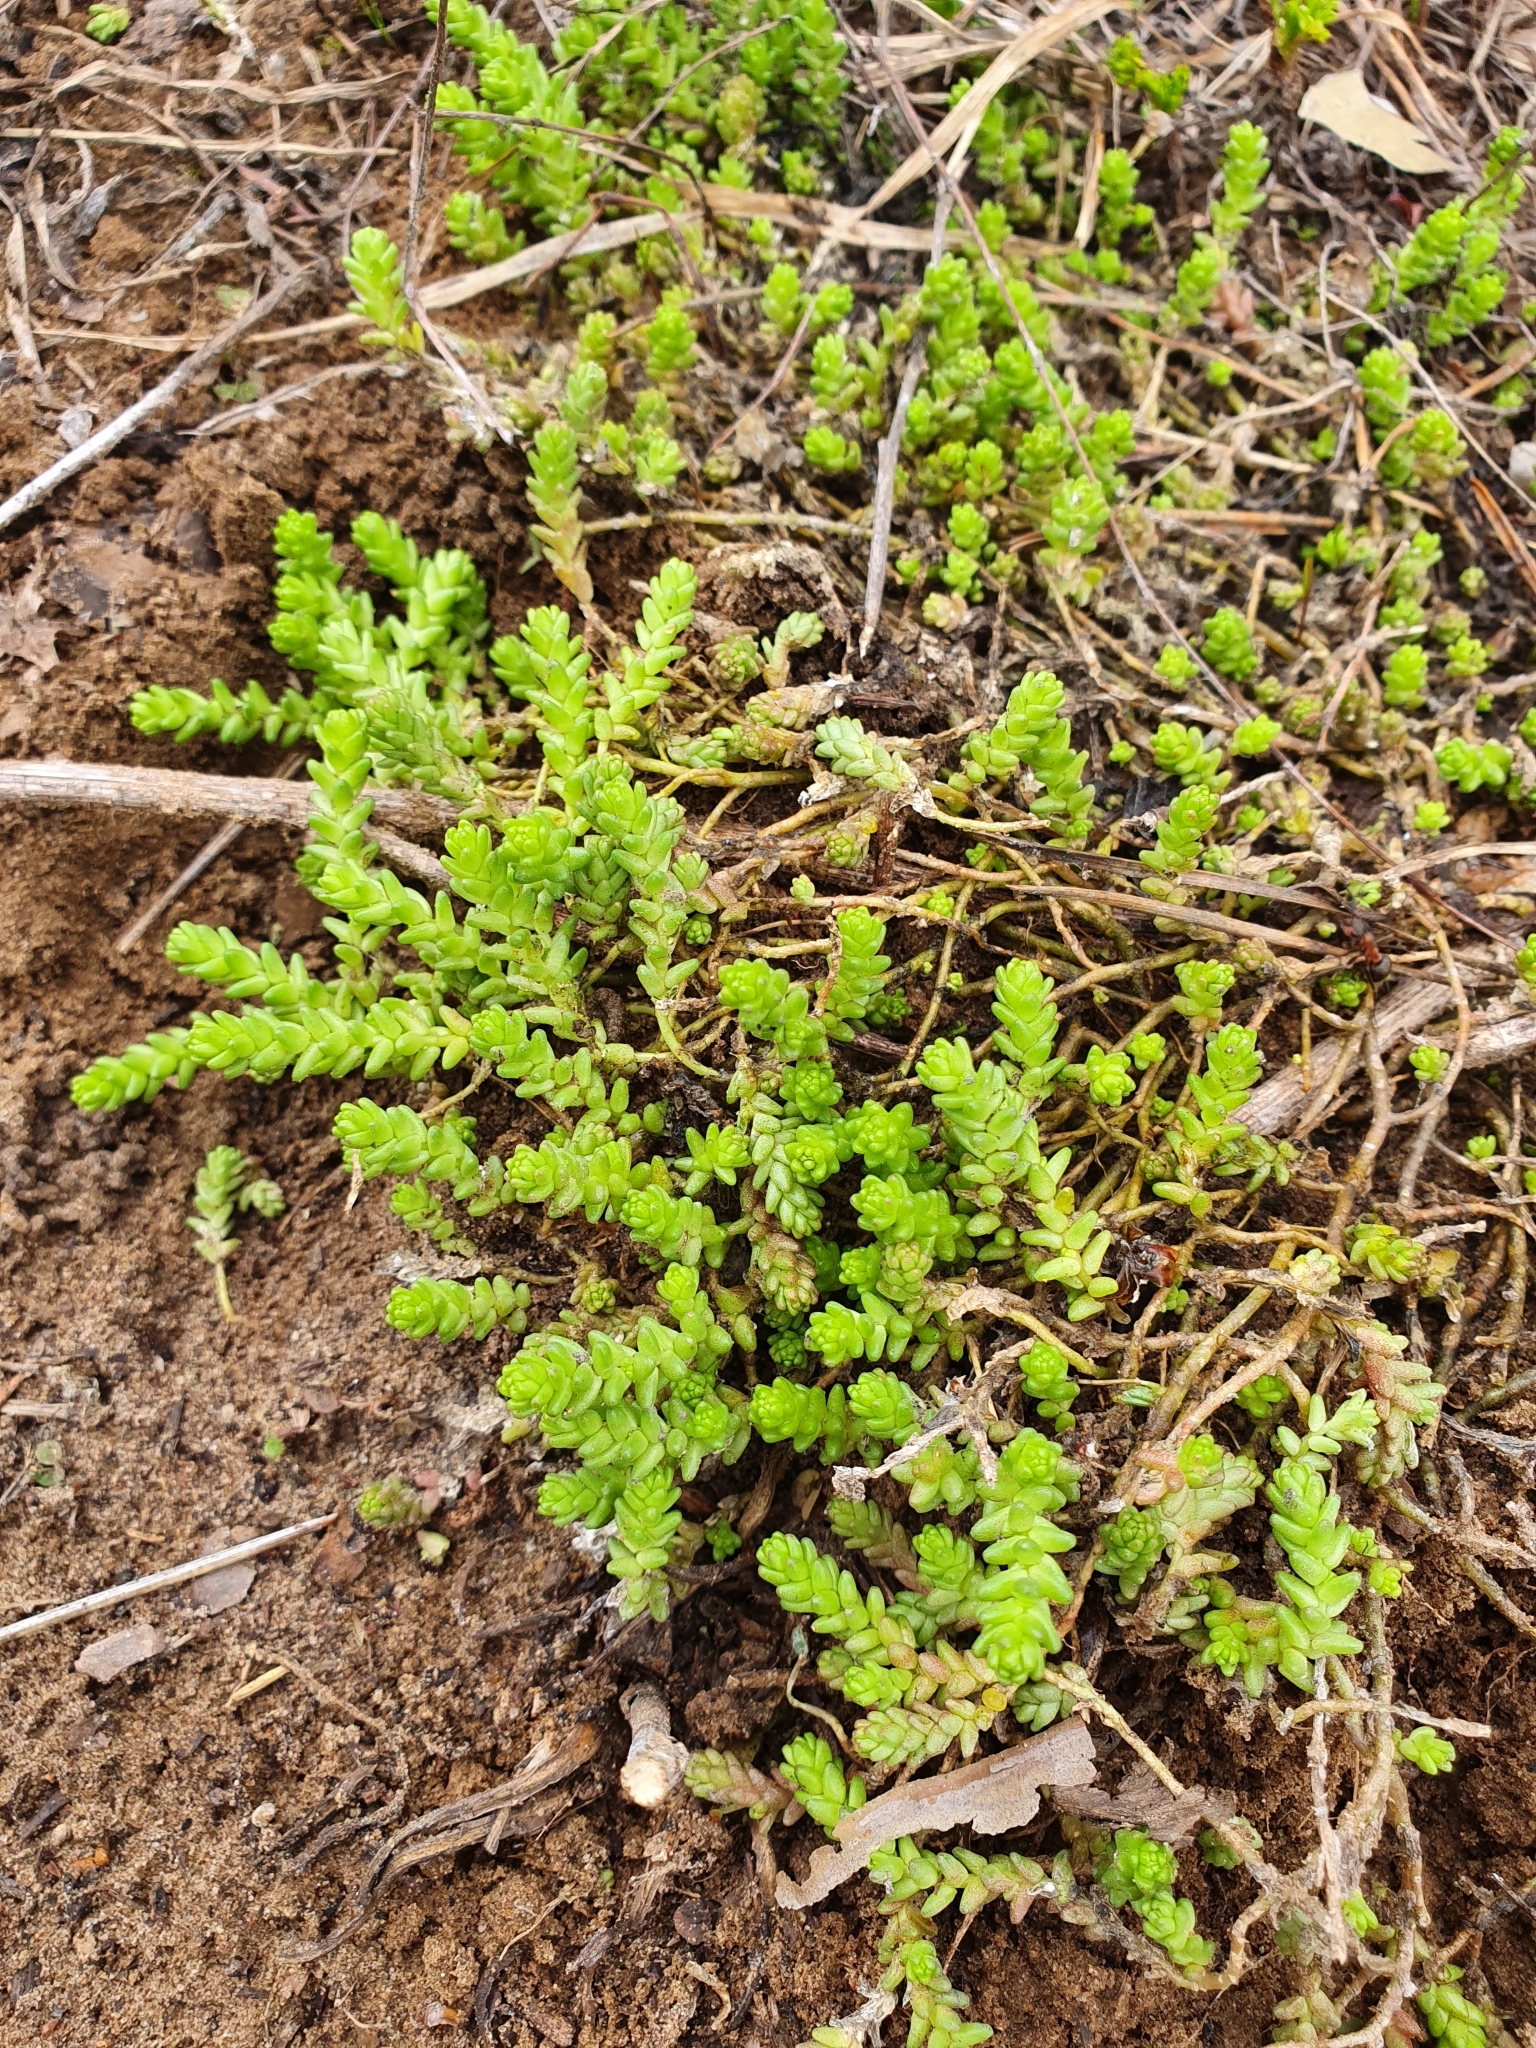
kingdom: Plantae
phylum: Tracheophyta
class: Magnoliopsida
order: Saxifragales
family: Crassulaceae
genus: Sedum
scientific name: Sedum acre
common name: Biting stonecrop
